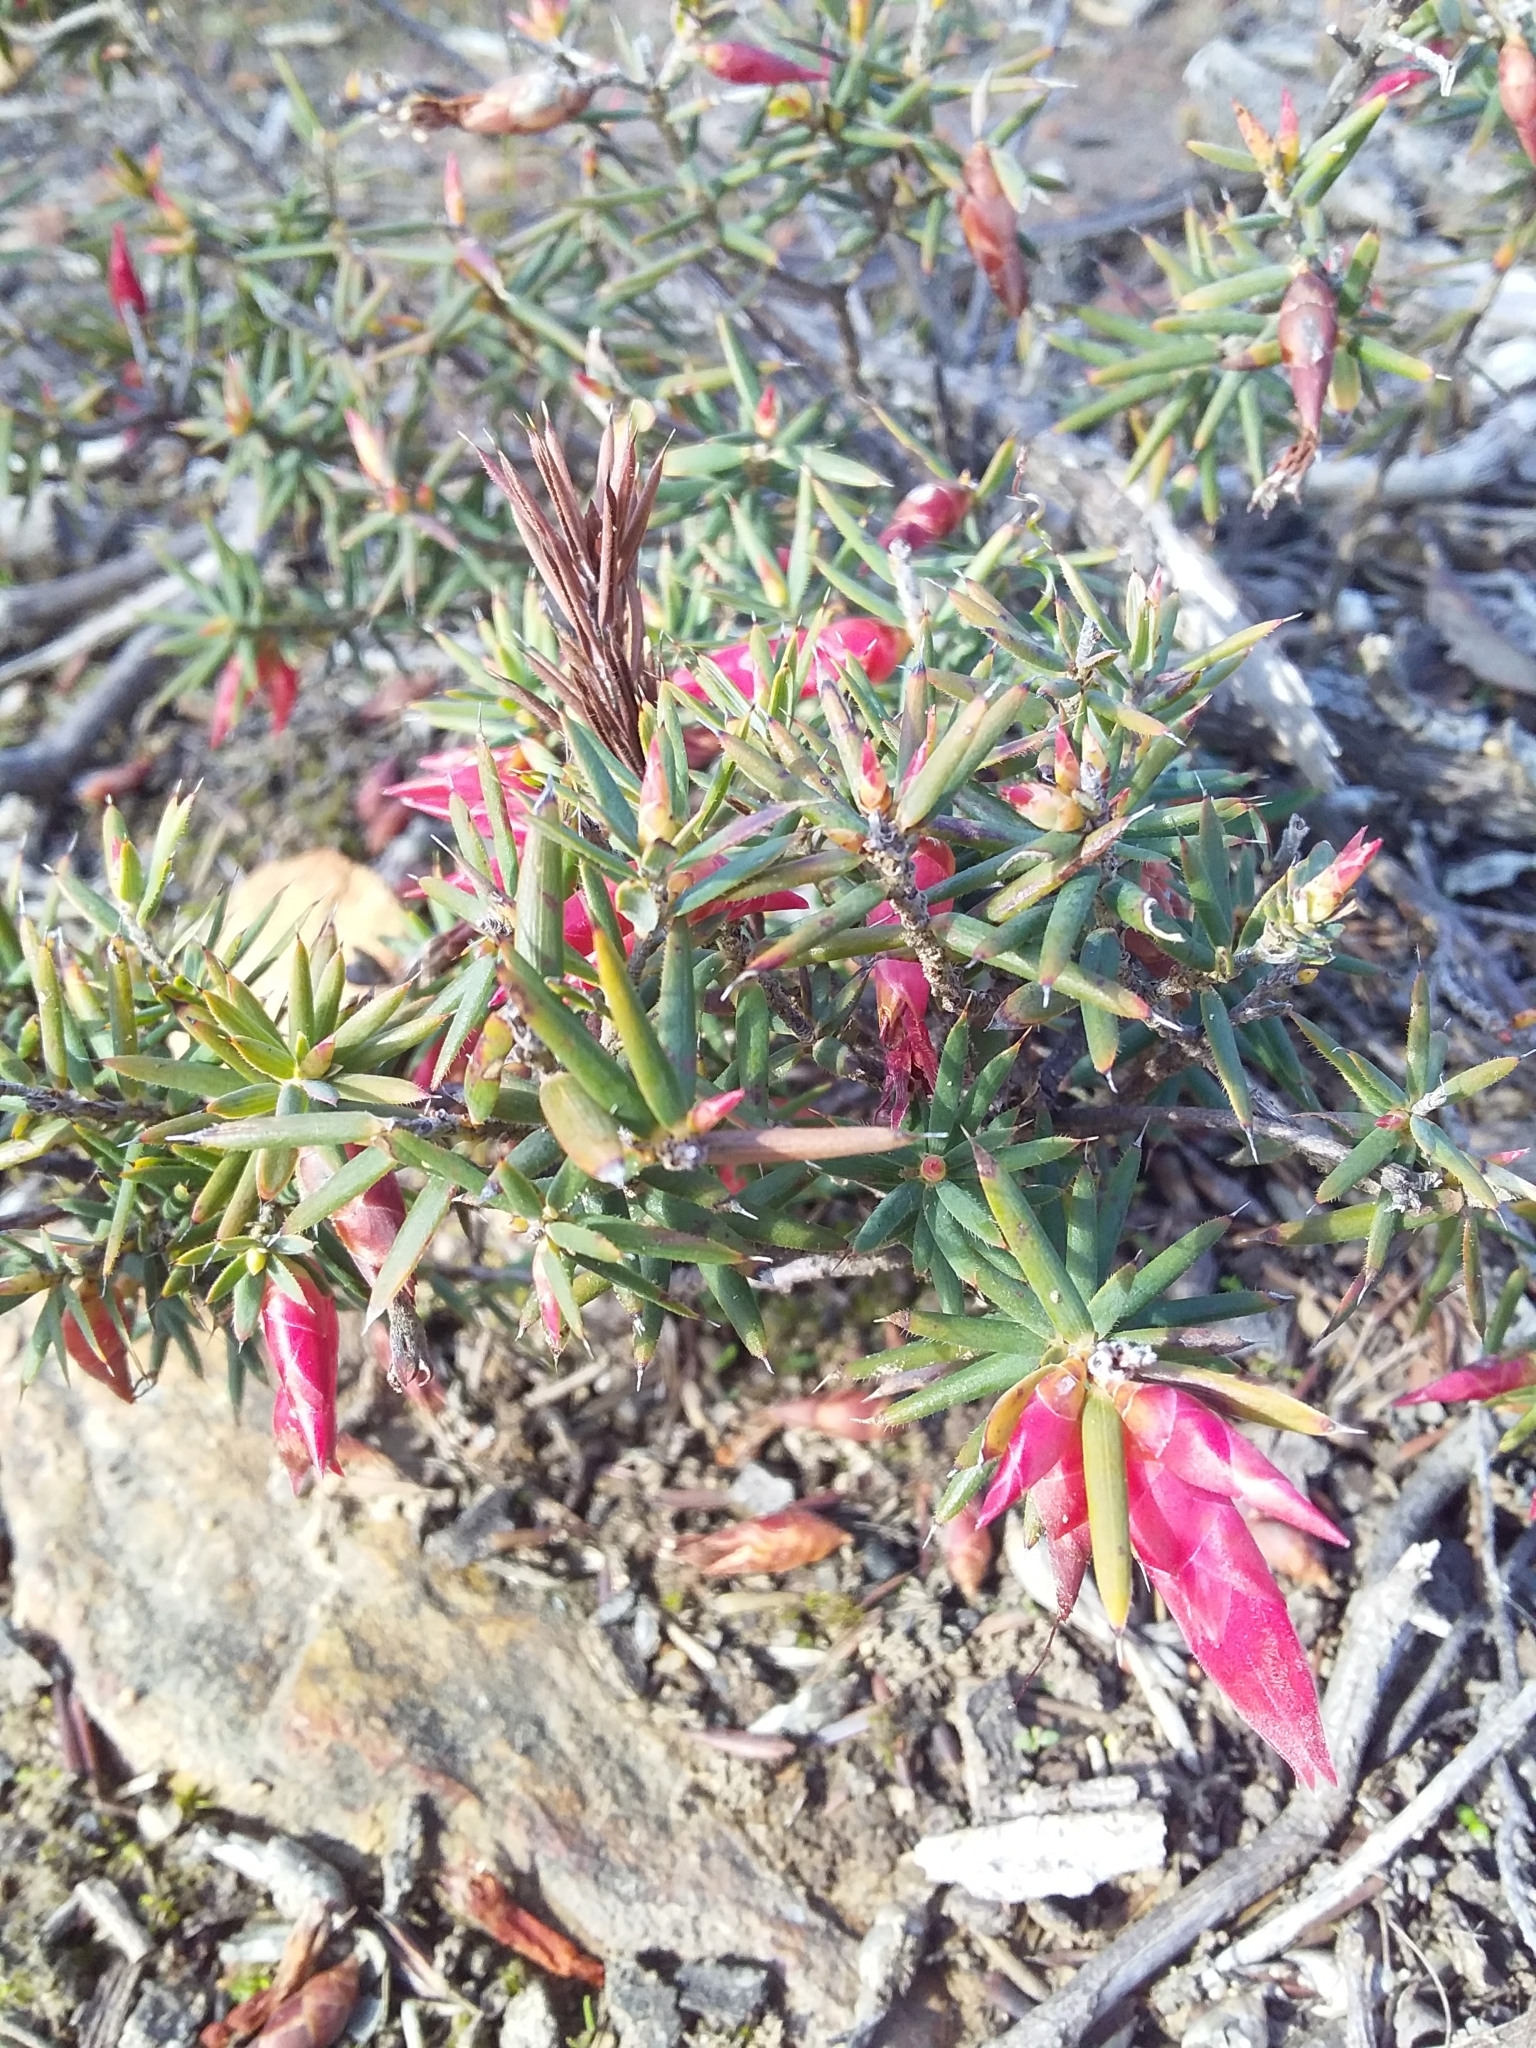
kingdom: Plantae
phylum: Tracheophyta
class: Magnoliopsida
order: Ericales
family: Ericaceae
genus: Stenanthera
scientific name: Stenanthera conostephioides
